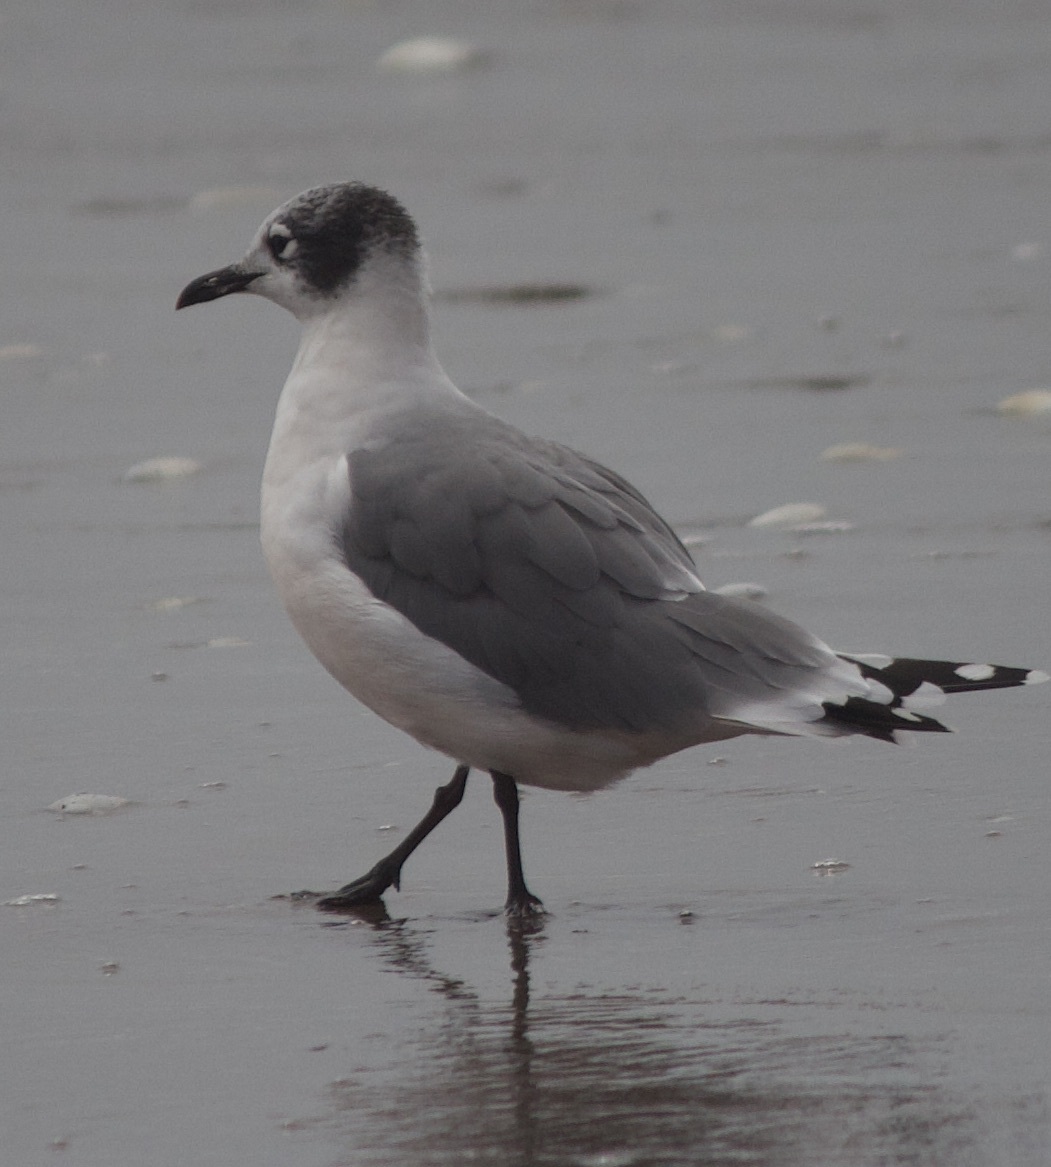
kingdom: Animalia
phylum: Chordata
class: Aves
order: Charadriiformes
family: Laridae
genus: Leucophaeus
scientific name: Leucophaeus pipixcan
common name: Franklin's gull
